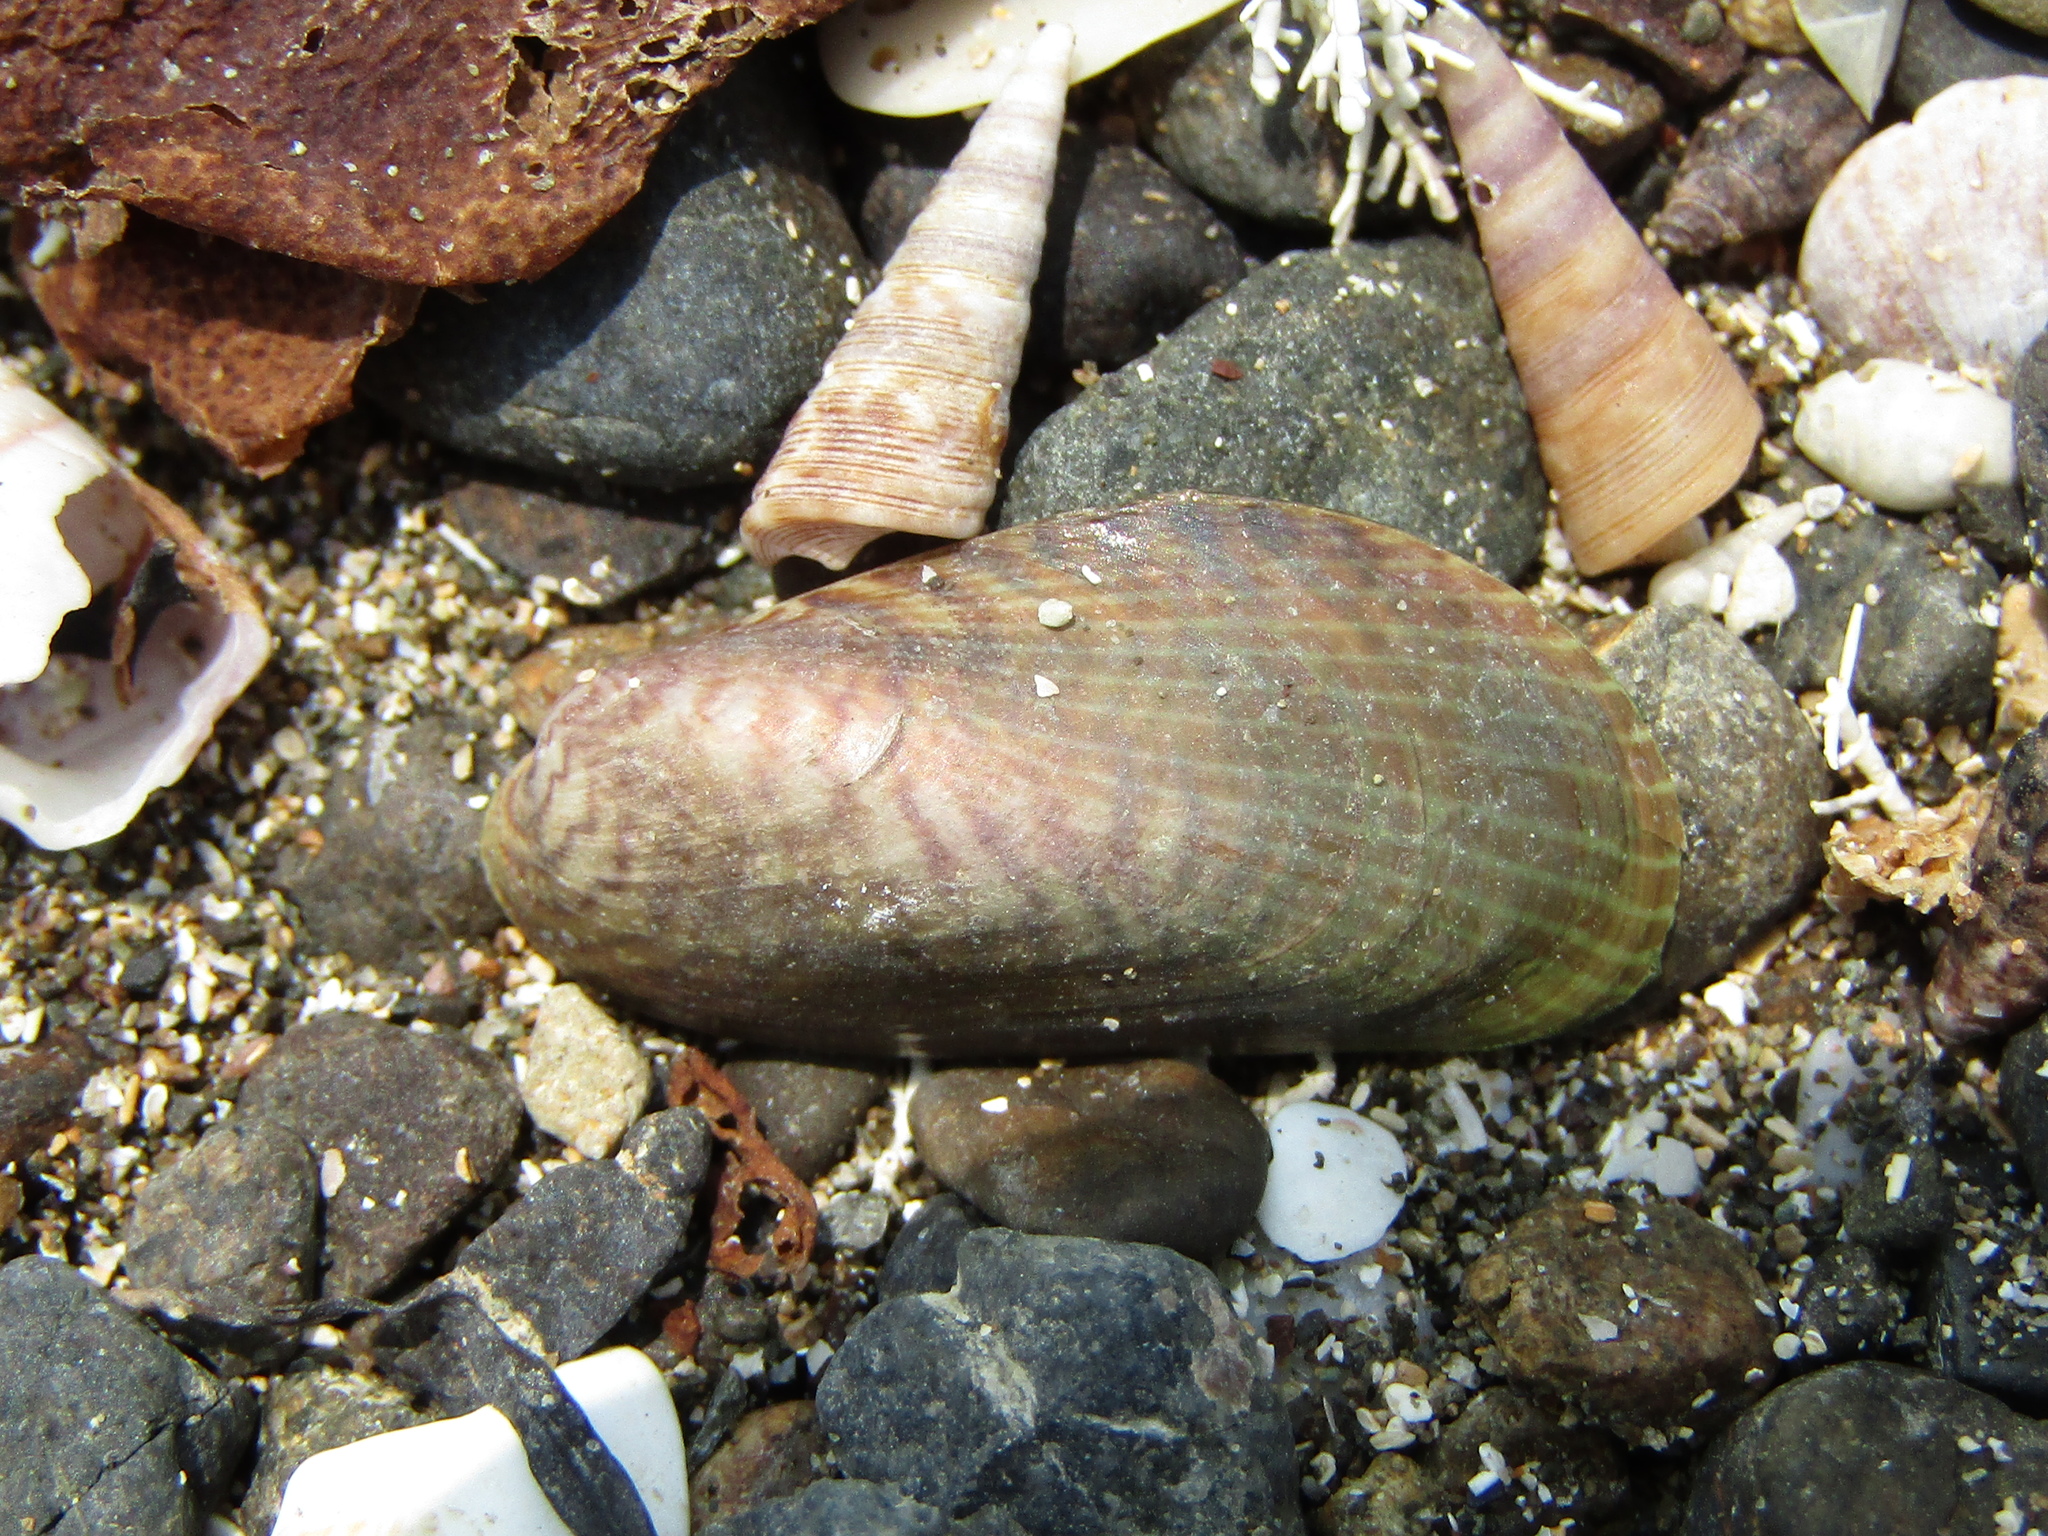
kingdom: Animalia
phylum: Mollusca
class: Bivalvia
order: Mytilida
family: Mytilidae
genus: Arcuatula
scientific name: Arcuatula senhousia
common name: Asian mussel
